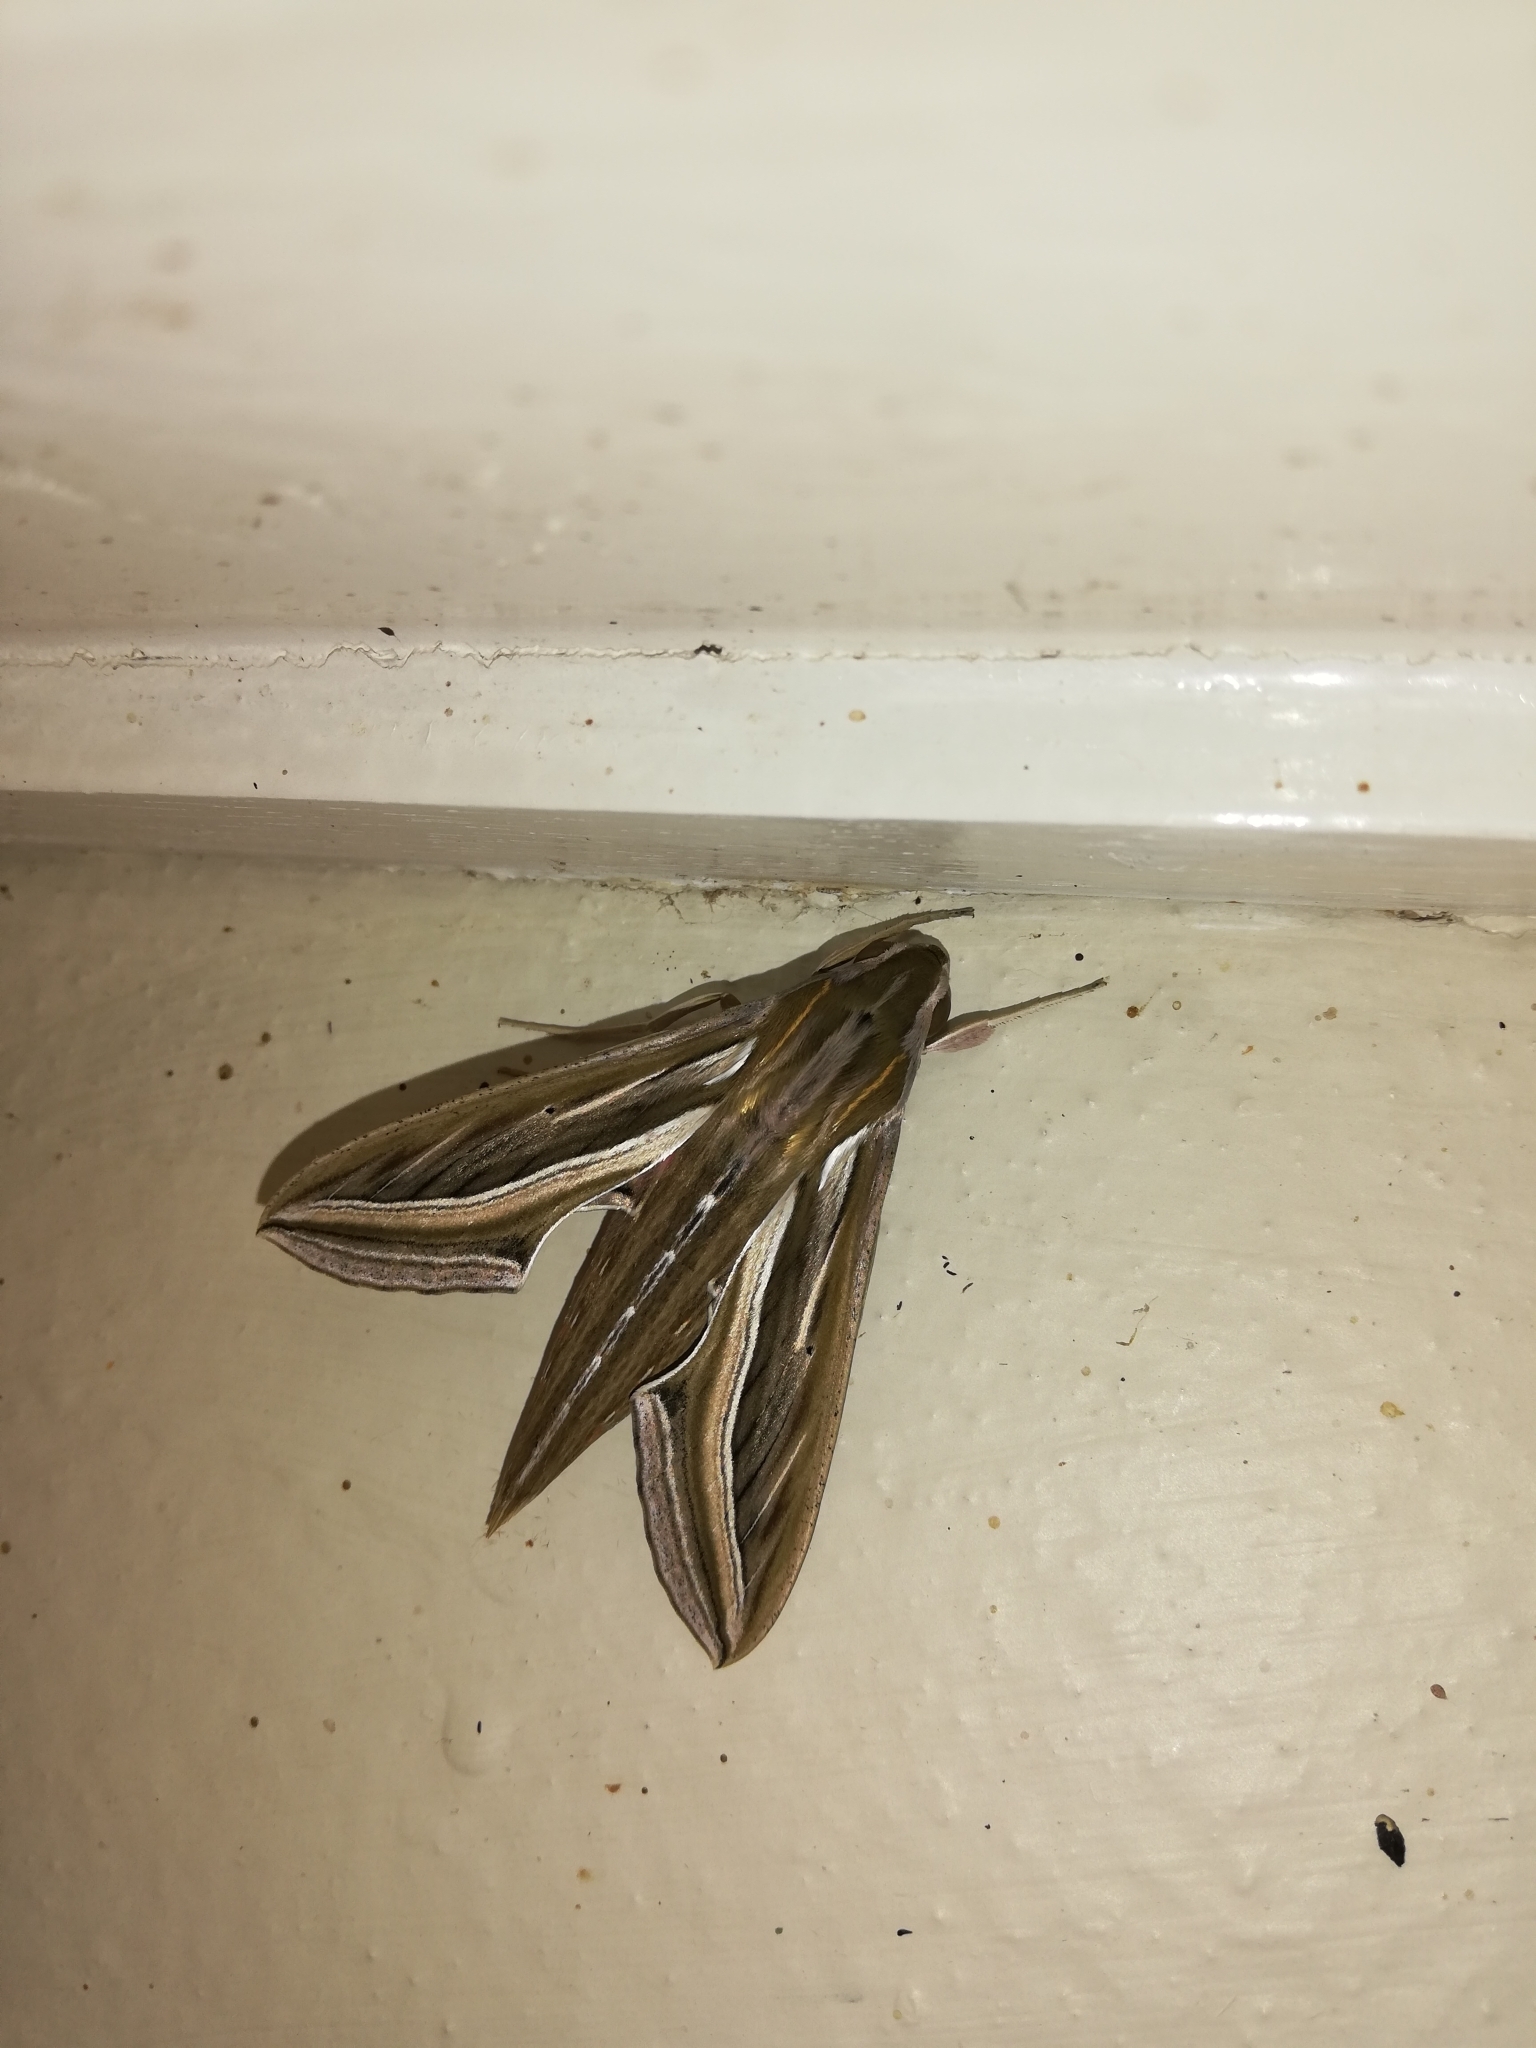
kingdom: Animalia
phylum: Arthropoda
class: Insecta
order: Lepidoptera
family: Sphingidae
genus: Hippotion
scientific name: Hippotion celerio
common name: Silver-striped hawk-moth
